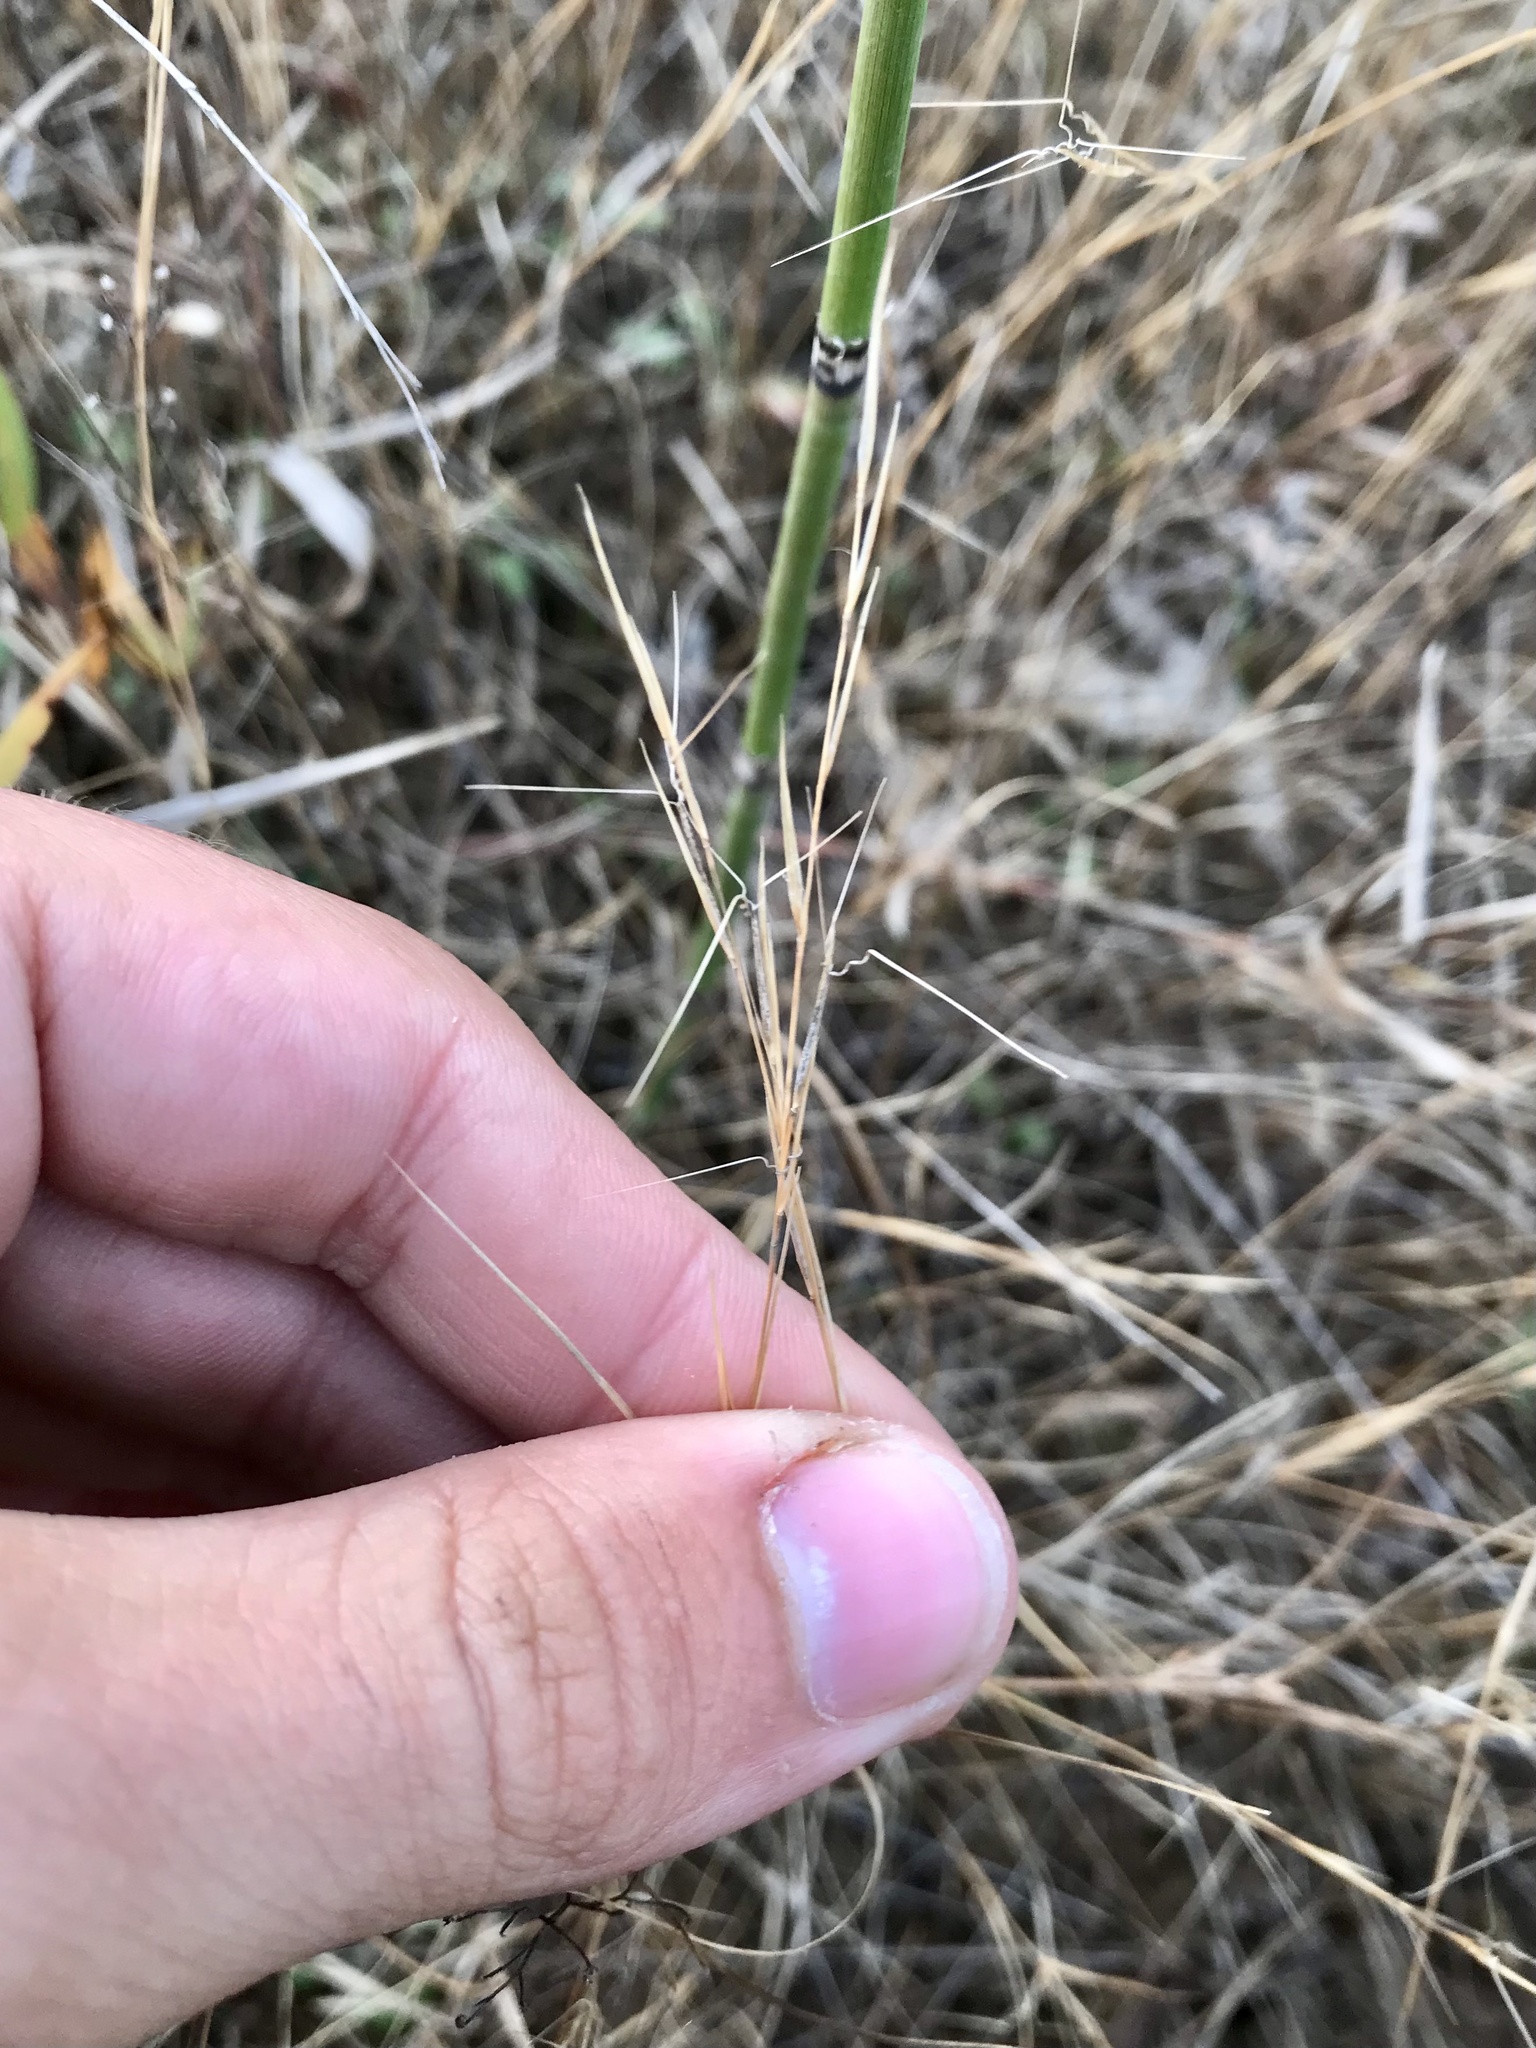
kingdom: Plantae
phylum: Tracheophyta
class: Liliopsida
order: Poales
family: Poaceae
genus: Aristida
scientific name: Aristida basiramea
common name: Forked three-awned grass
